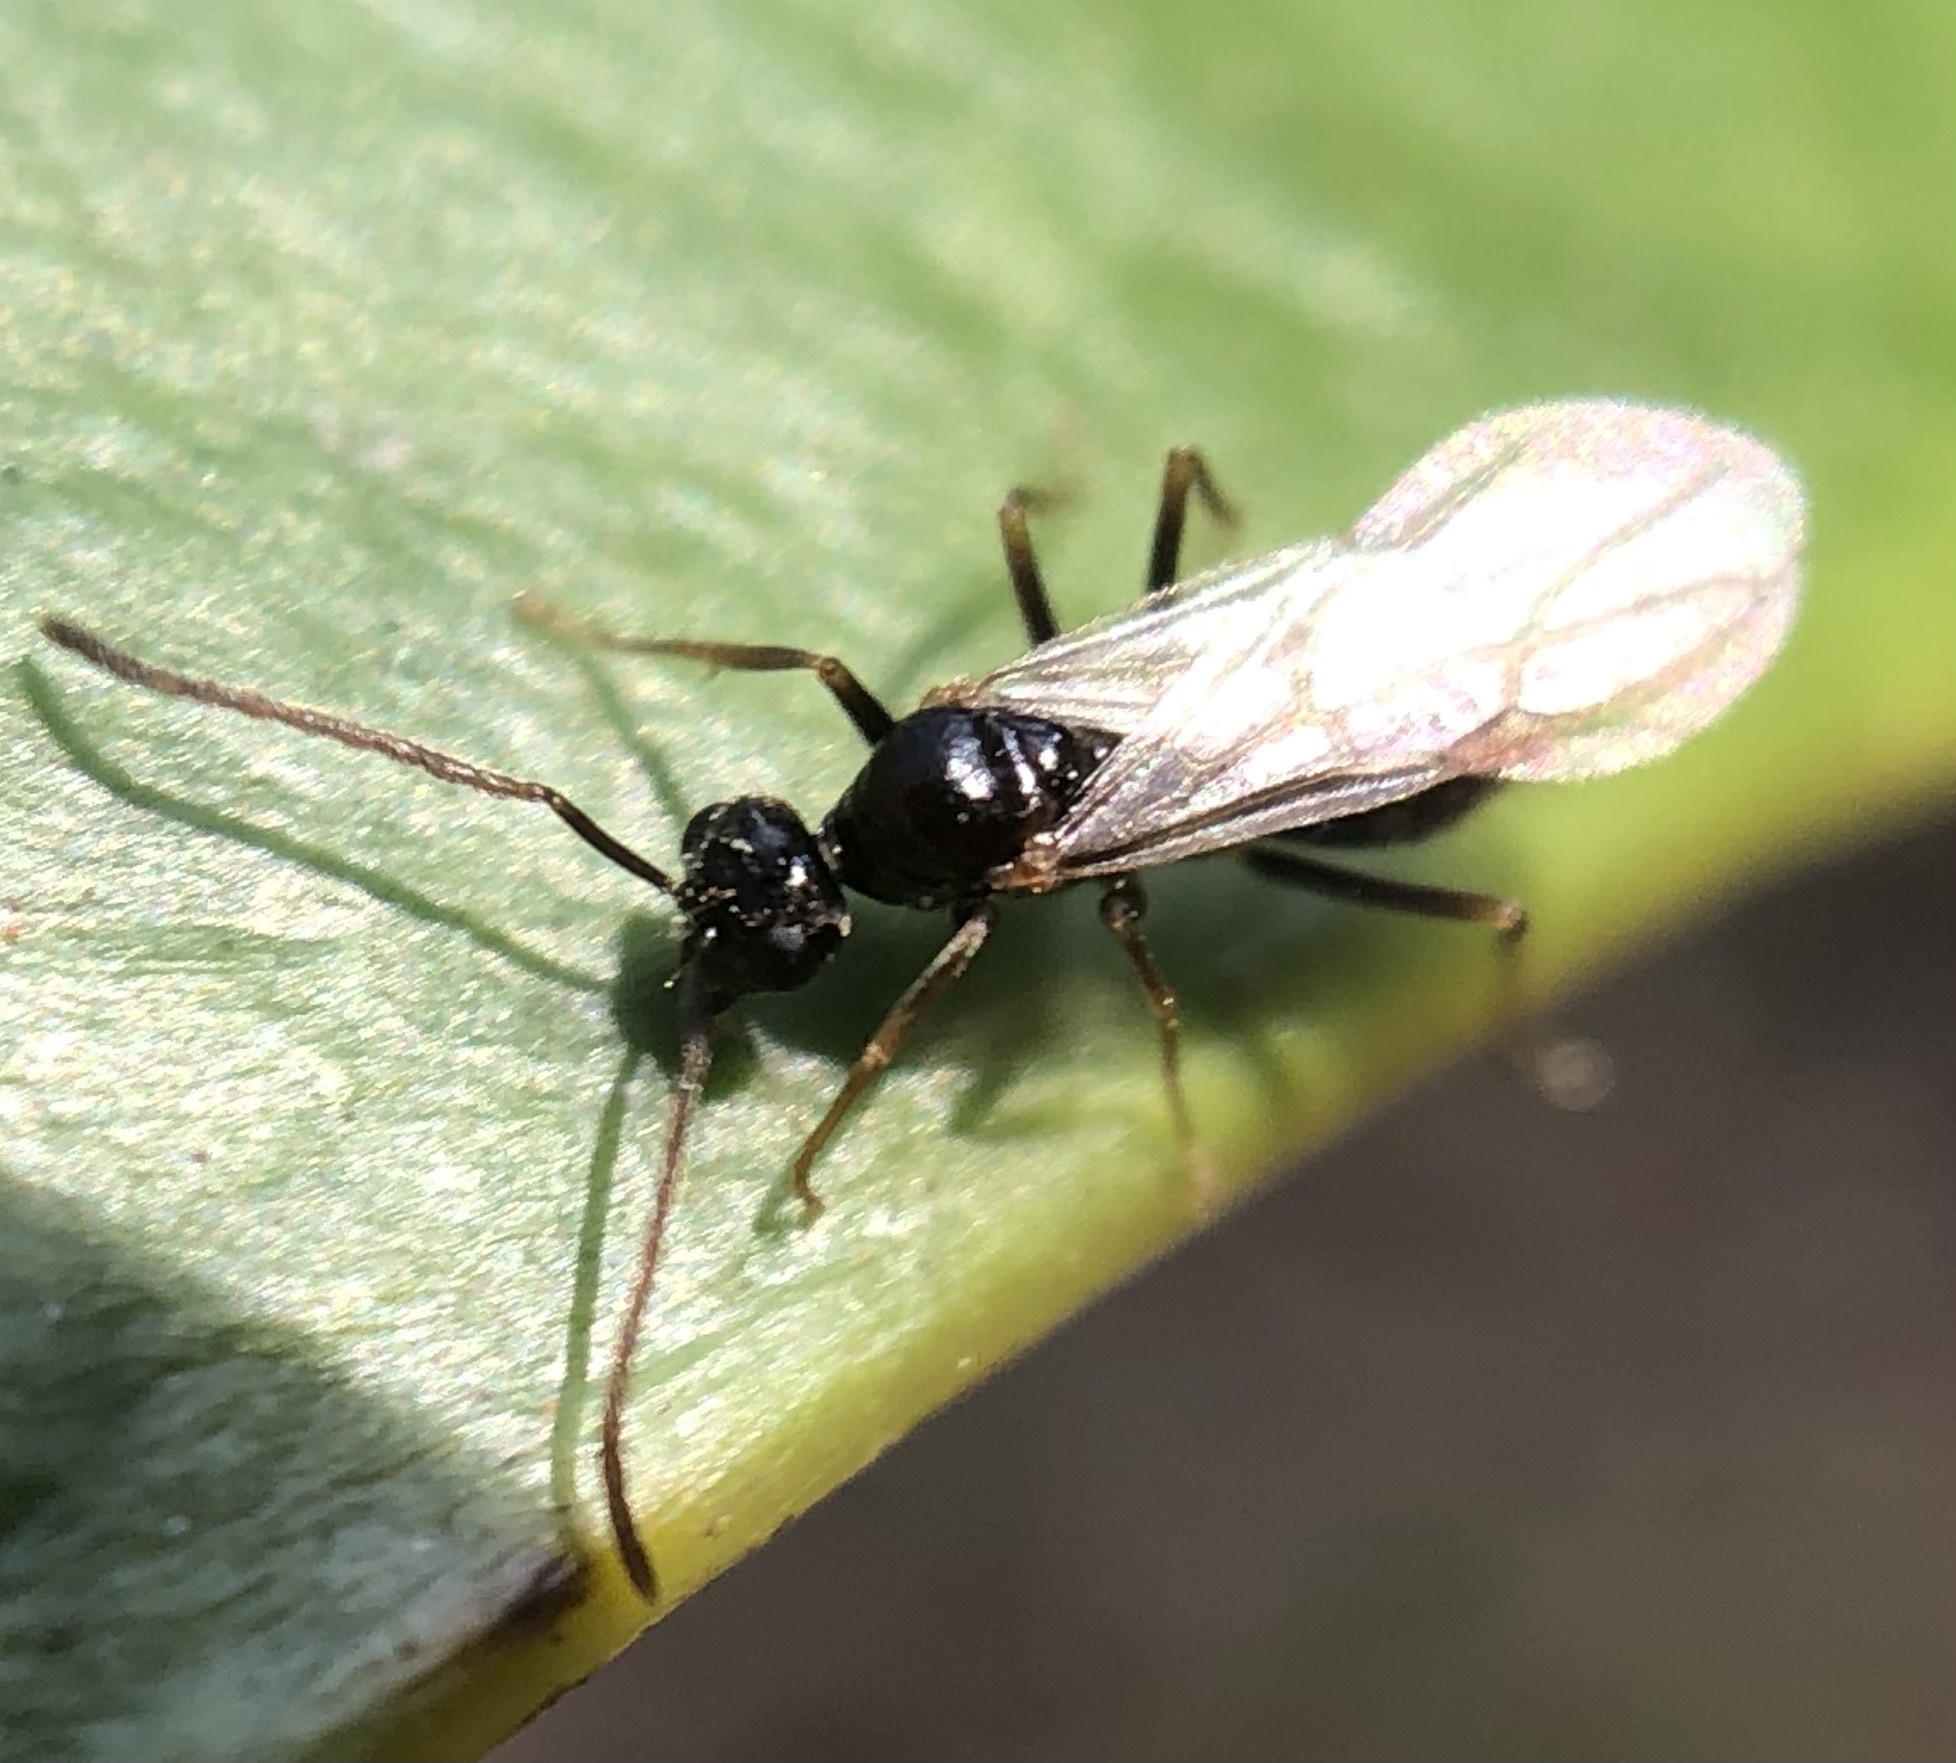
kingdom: Animalia
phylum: Arthropoda
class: Insecta
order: Hymenoptera
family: Formicidae
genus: Prenolepis
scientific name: Prenolepis imparis
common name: Small honey ant
